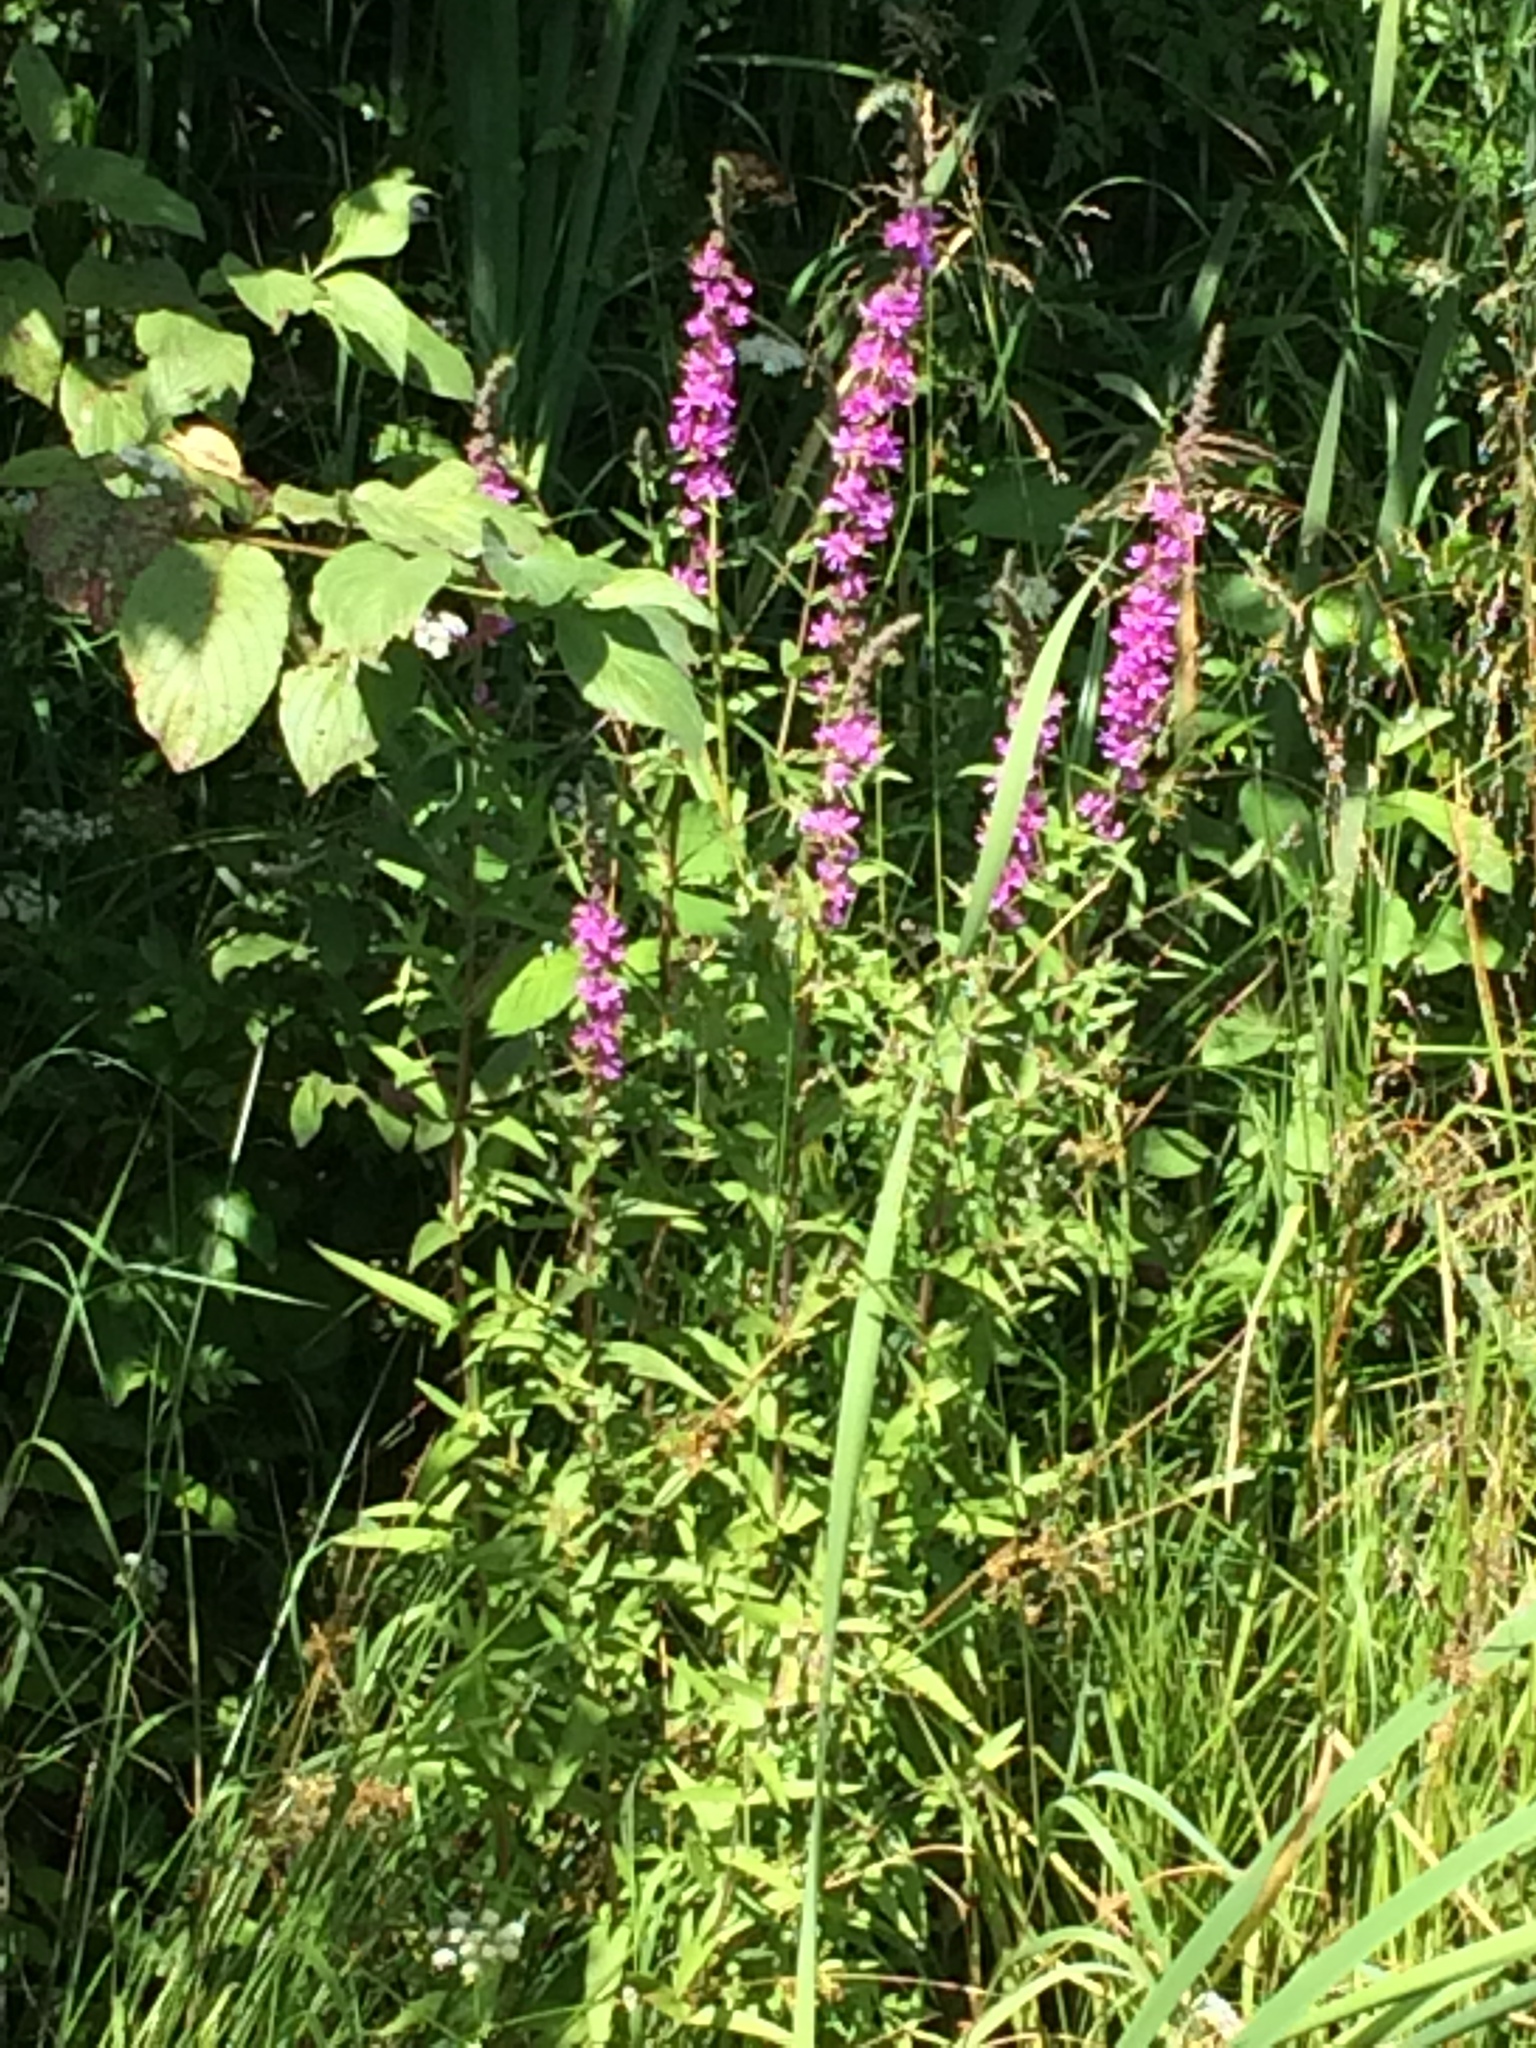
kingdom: Plantae
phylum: Tracheophyta
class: Magnoliopsida
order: Myrtales
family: Lythraceae
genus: Lythrum
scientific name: Lythrum salicaria
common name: Purple loosestrife
